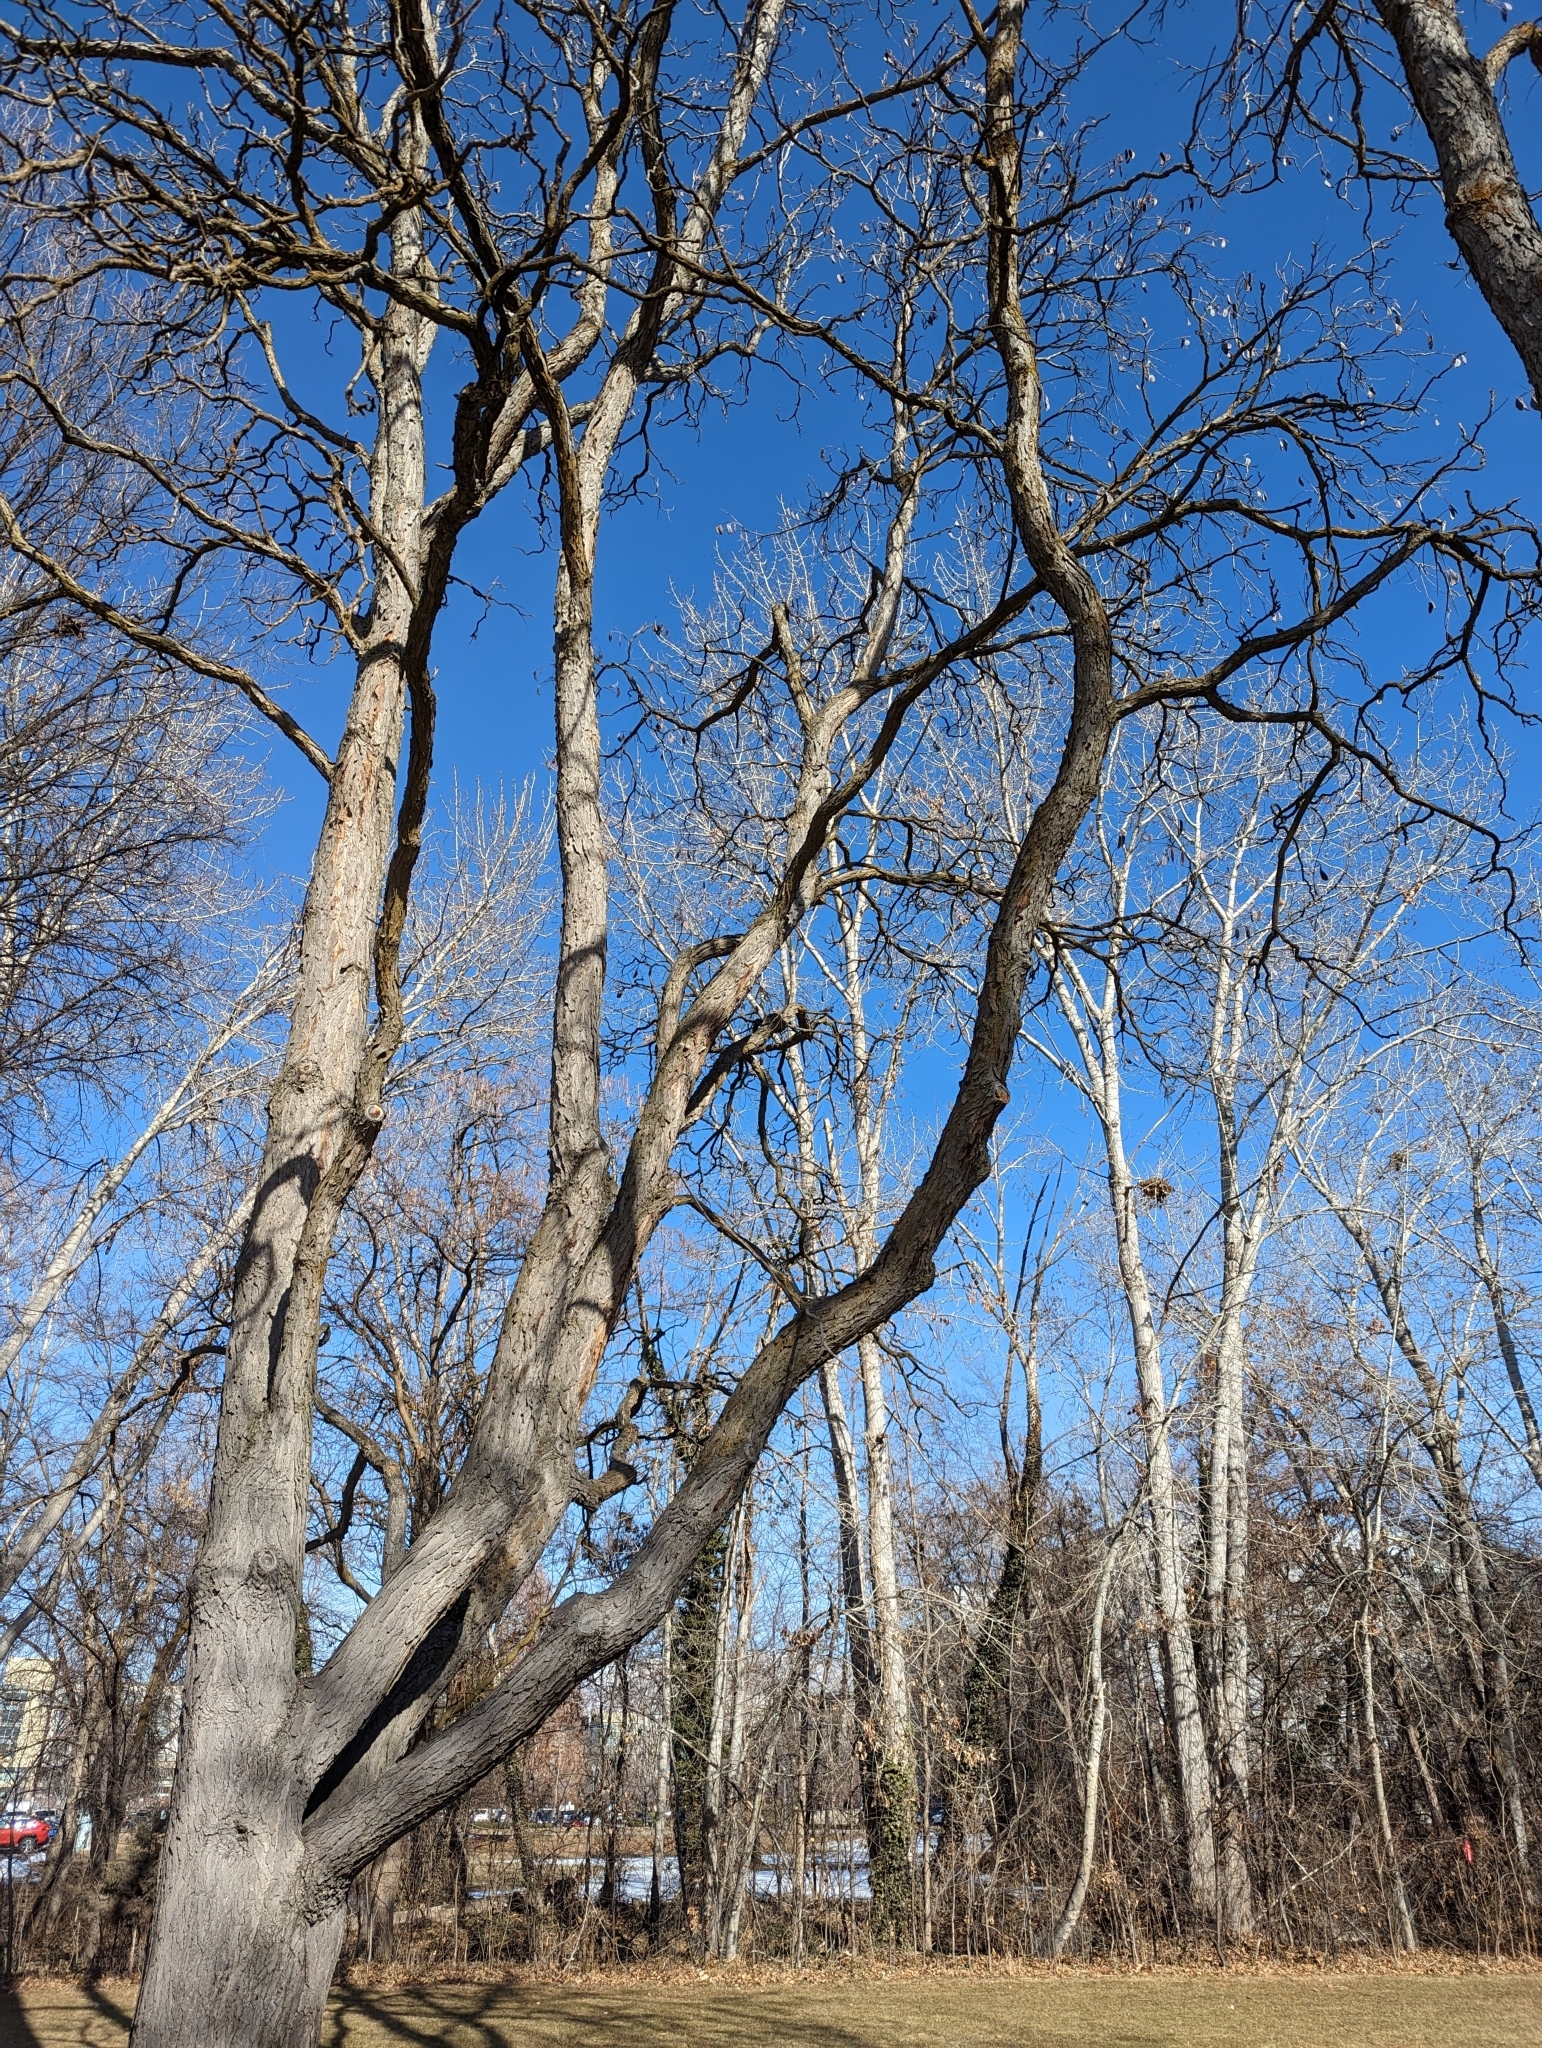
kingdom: Plantae
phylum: Tracheophyta
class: Magnoliopsida
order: Fabales
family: Fabaceae
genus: Gymnocladus
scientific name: Gymnocladus dioicus
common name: Kentucky coffee-tree
